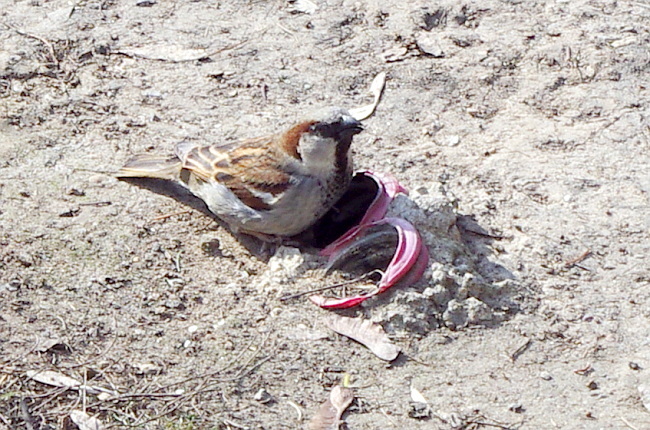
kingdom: Animalia
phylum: Chordata
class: Aves
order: Passeriformes
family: Passeridae
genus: Passer
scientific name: Passer domesticus
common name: House sparrow
